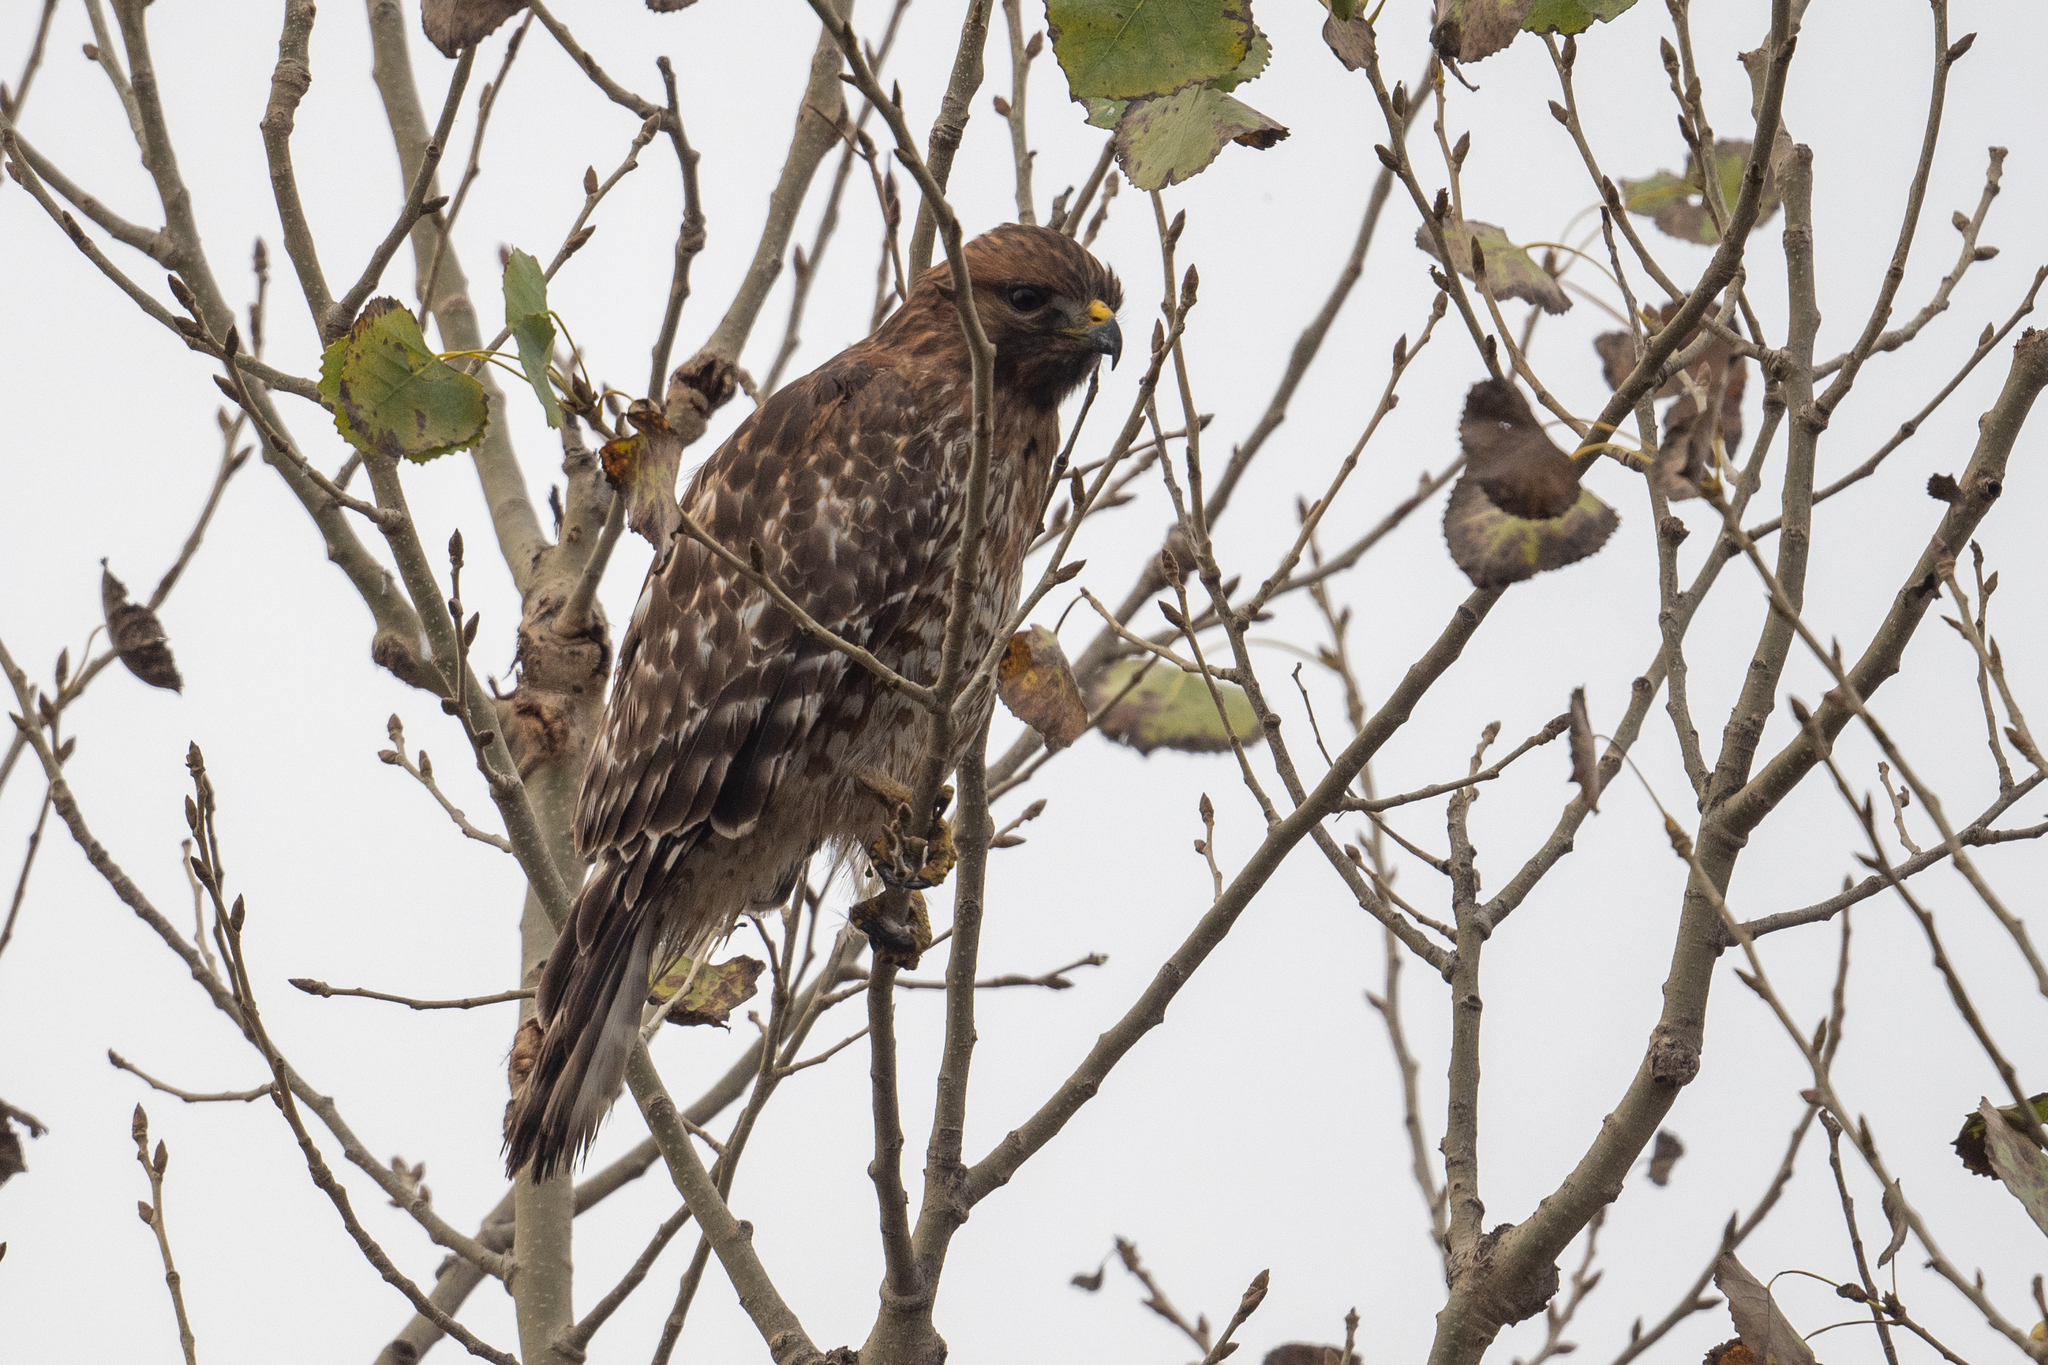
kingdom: Animalia
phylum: Chordata
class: Aves
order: Accipitriformes
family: Accipitridae
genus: Buteo
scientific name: Buteo lineatus
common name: Red-shouldered hawk
